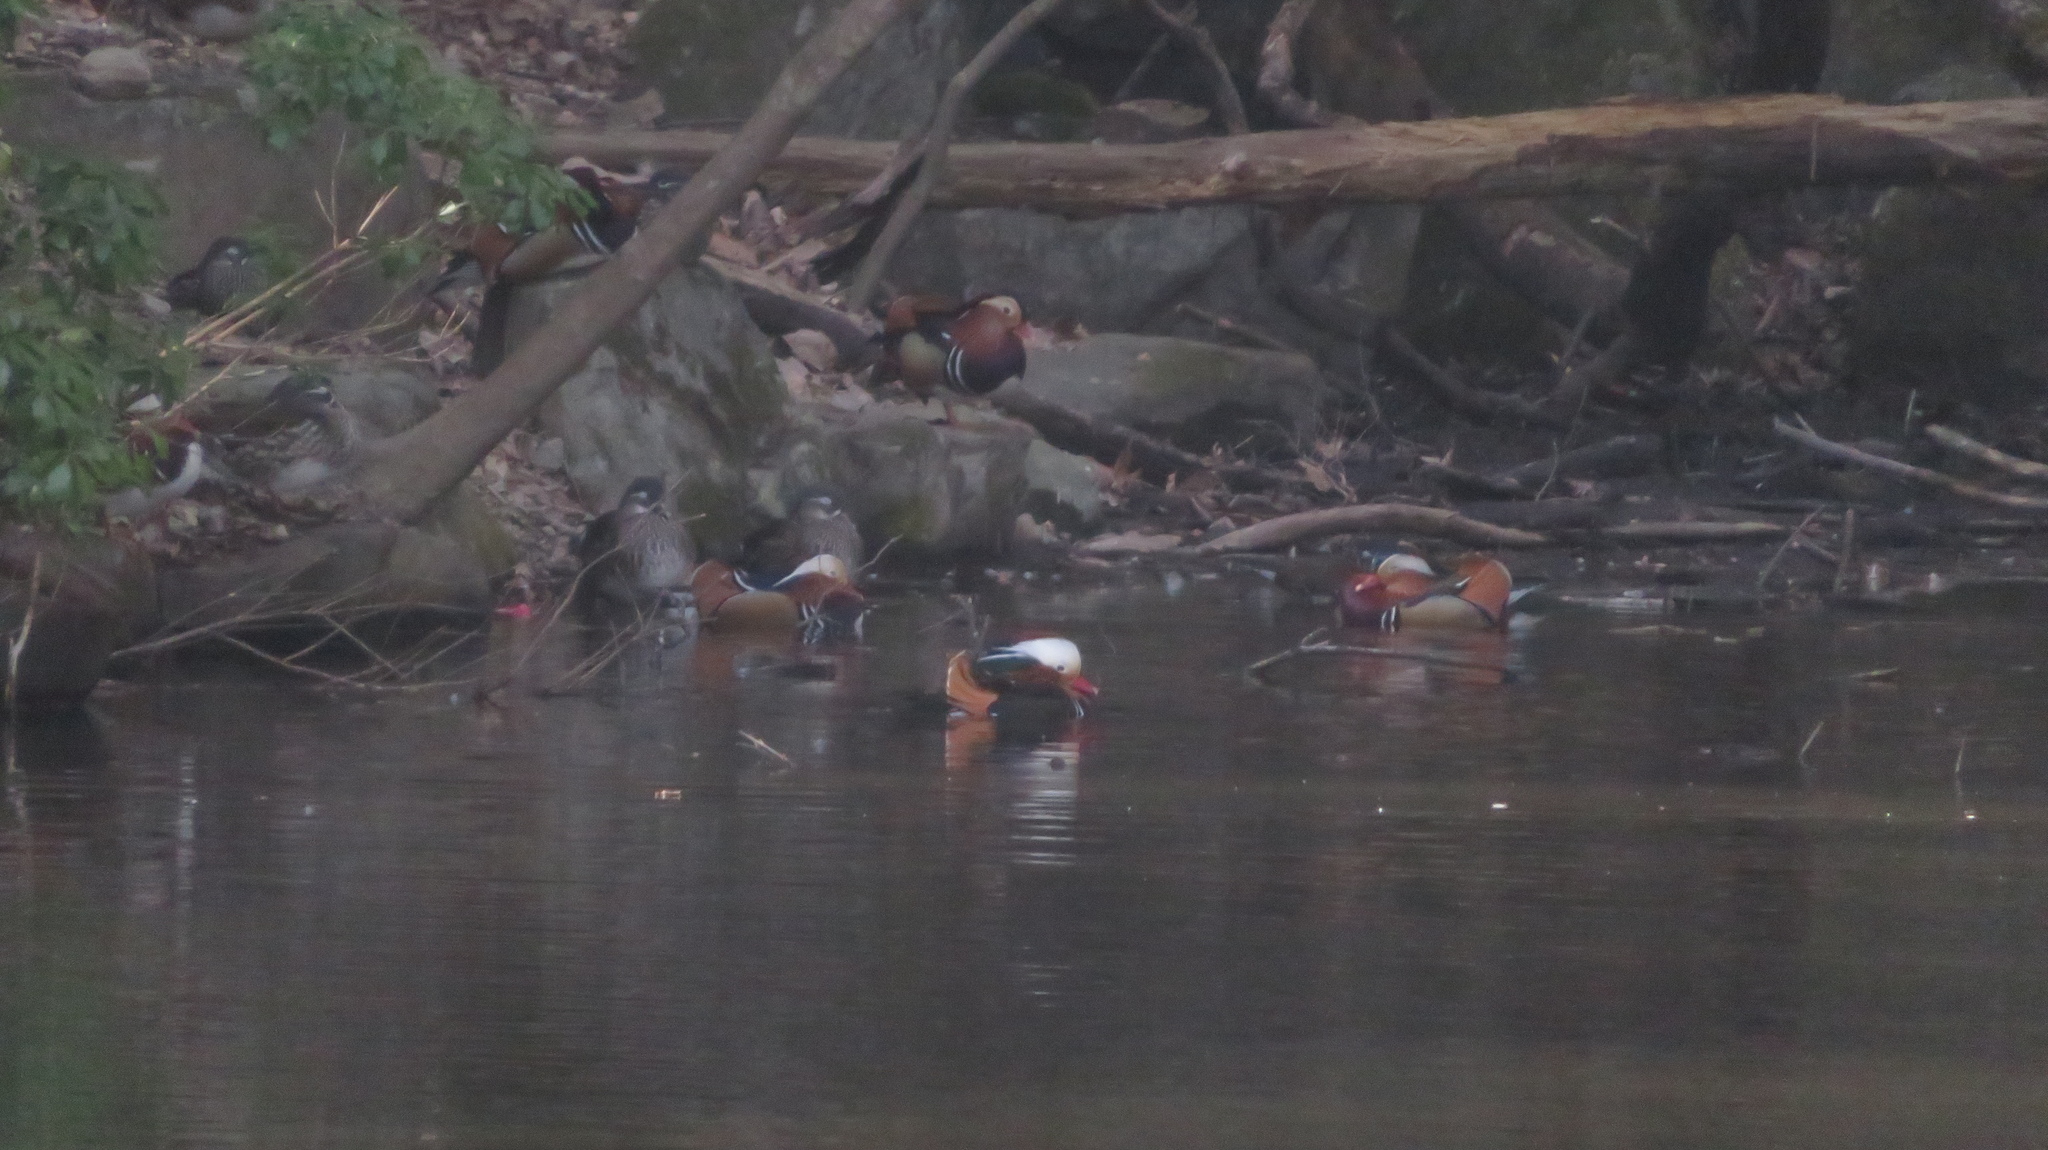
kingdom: Animalia
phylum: Chordata
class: Aves
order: Anseriformes
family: Anatidae
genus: Aix
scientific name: Aix galericulata
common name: Mandarin duck
